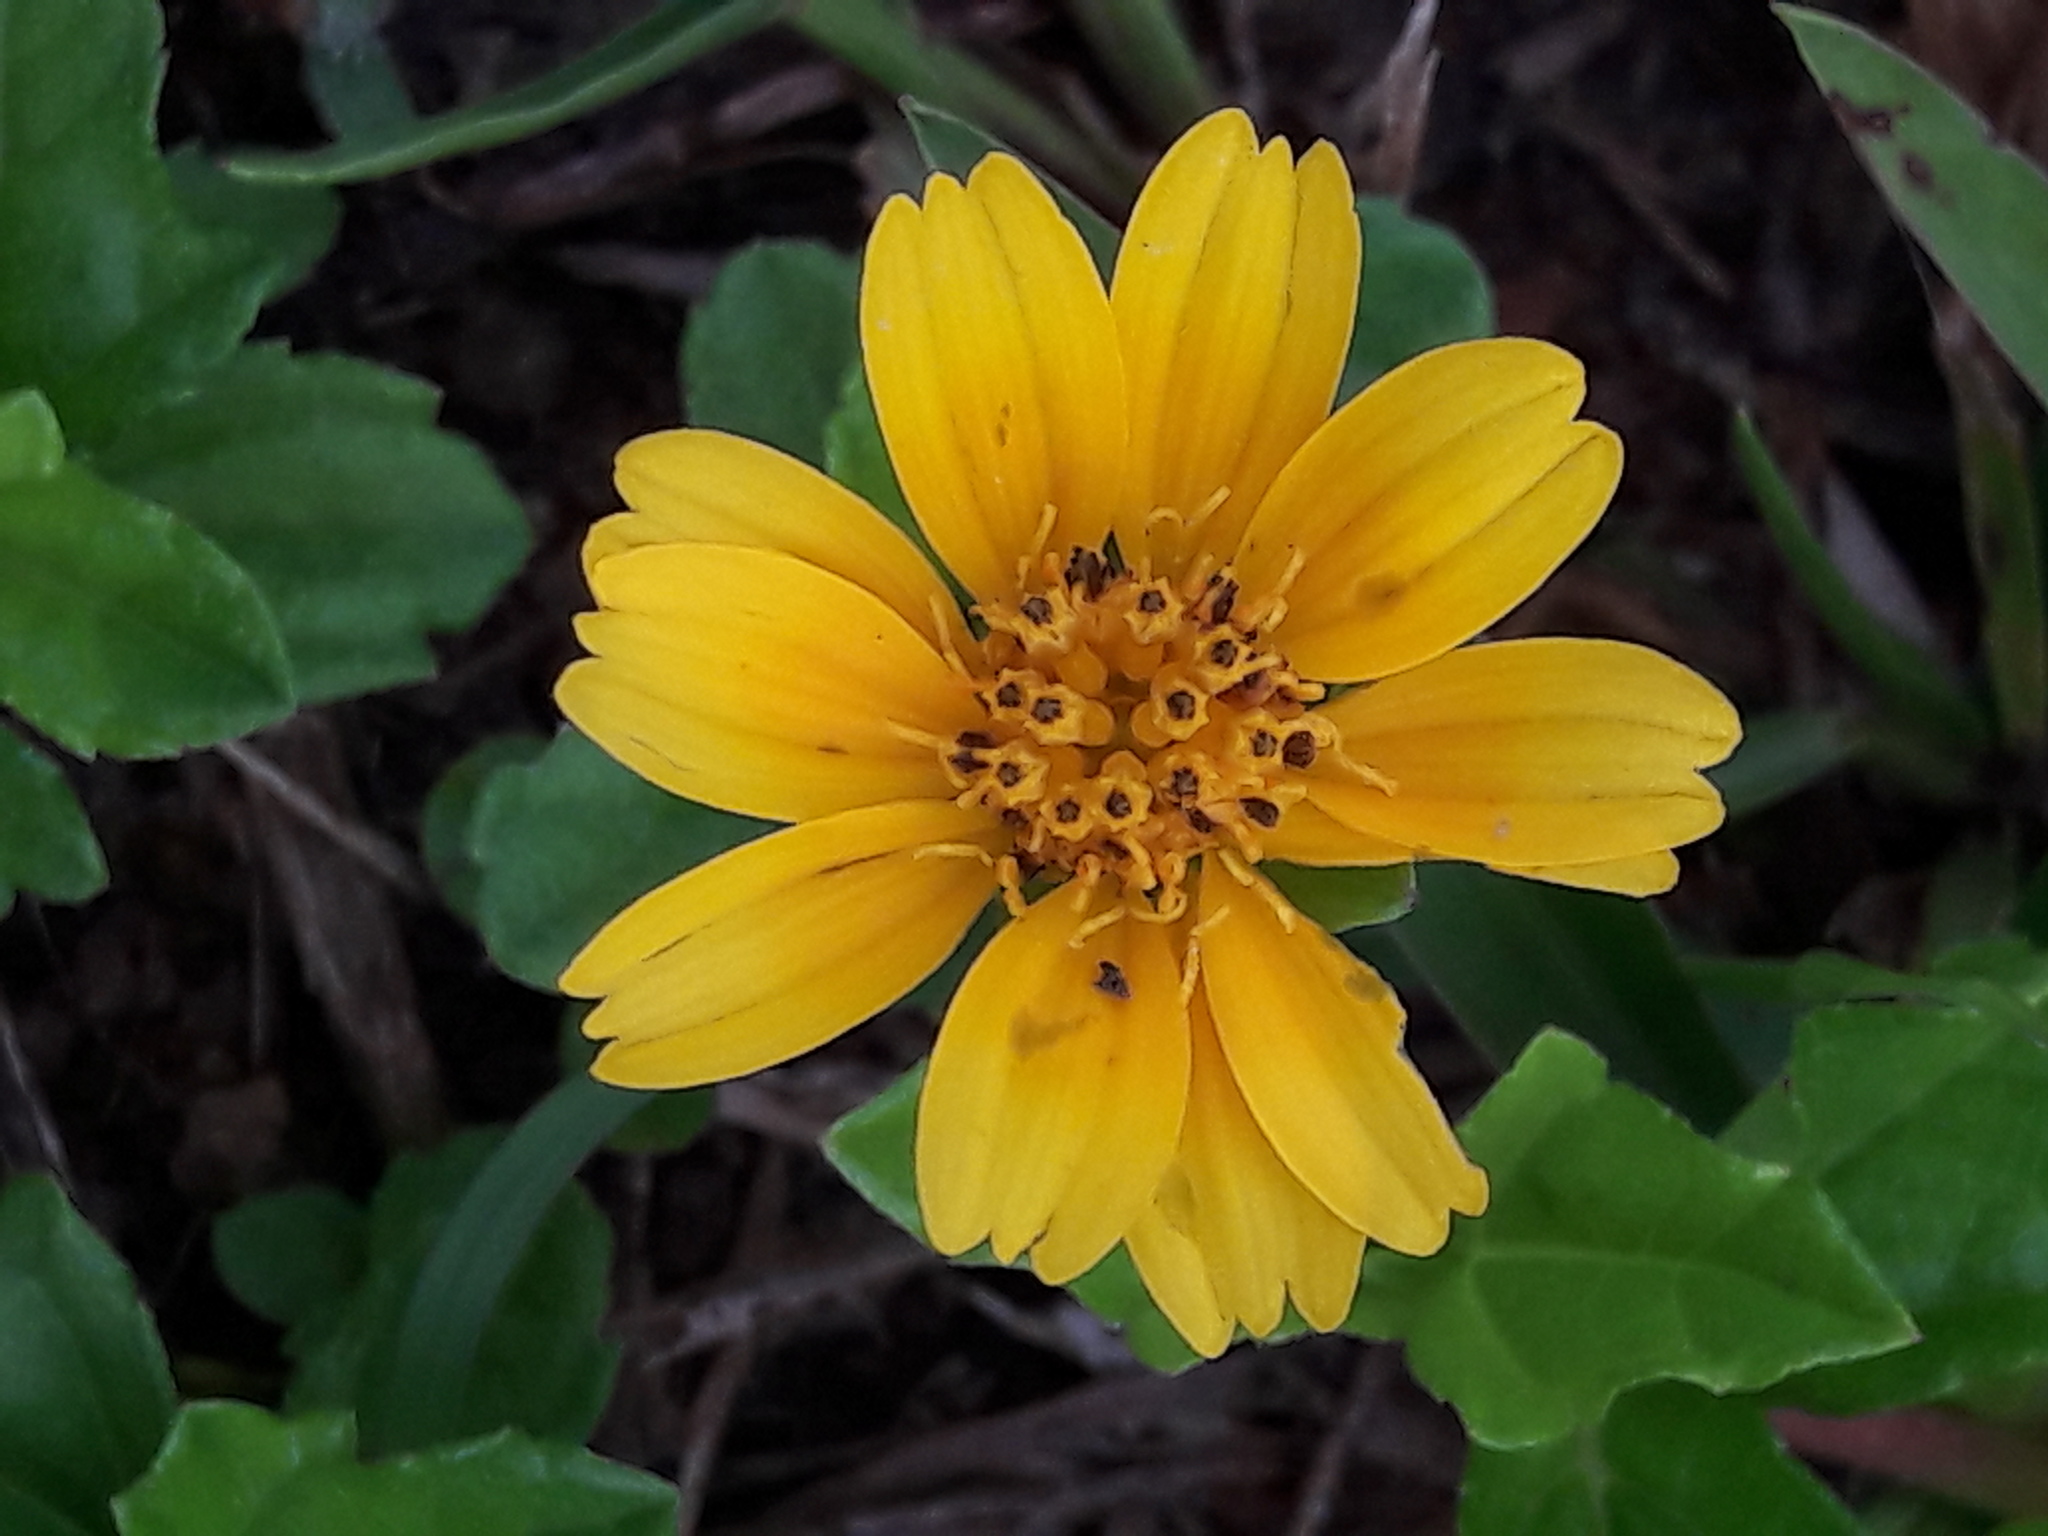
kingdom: Plantae
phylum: Tracheophyta
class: Magnoliopsida
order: Asterales
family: Asteraceae
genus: Sphagneticola
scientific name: Sphagneticola trilobata
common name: Bay biscayne creeping-oxeye
